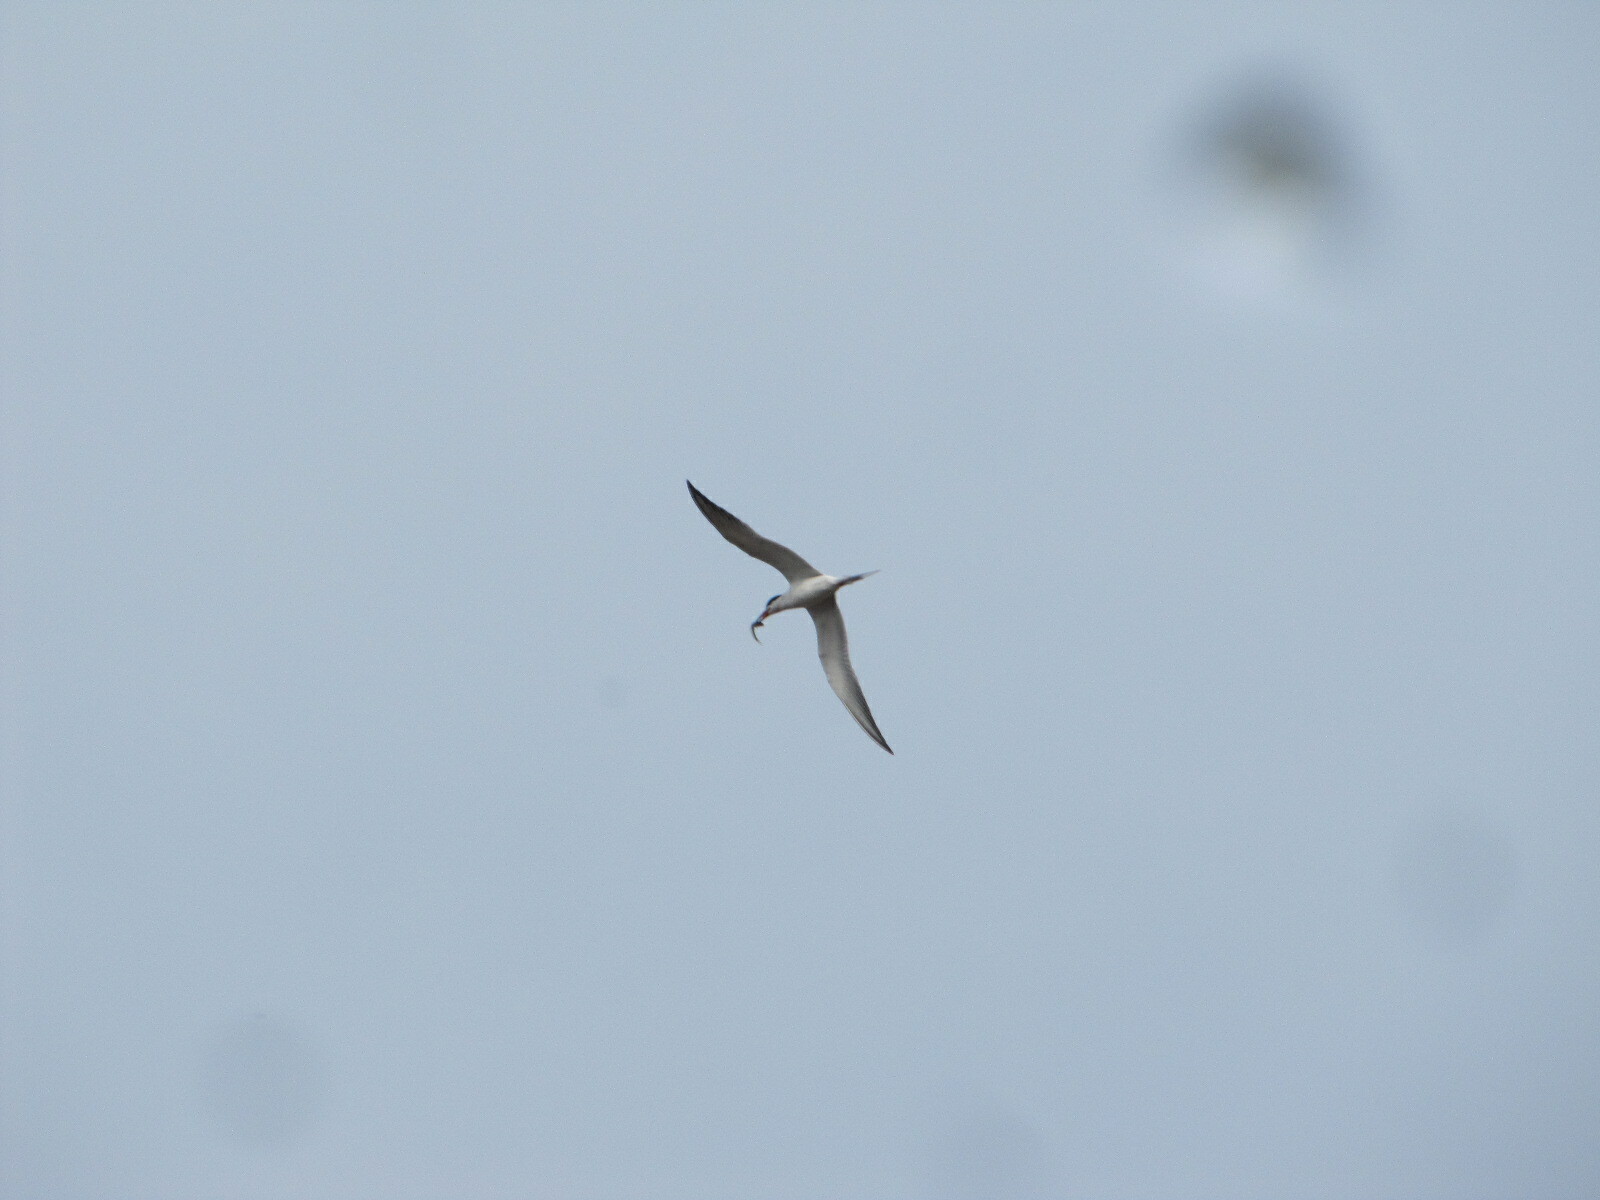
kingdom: Animalia
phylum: Chordata
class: Aves
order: Charadriiformes
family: Laridae
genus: Sterna
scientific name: Sterna hirundo
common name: Common tern
